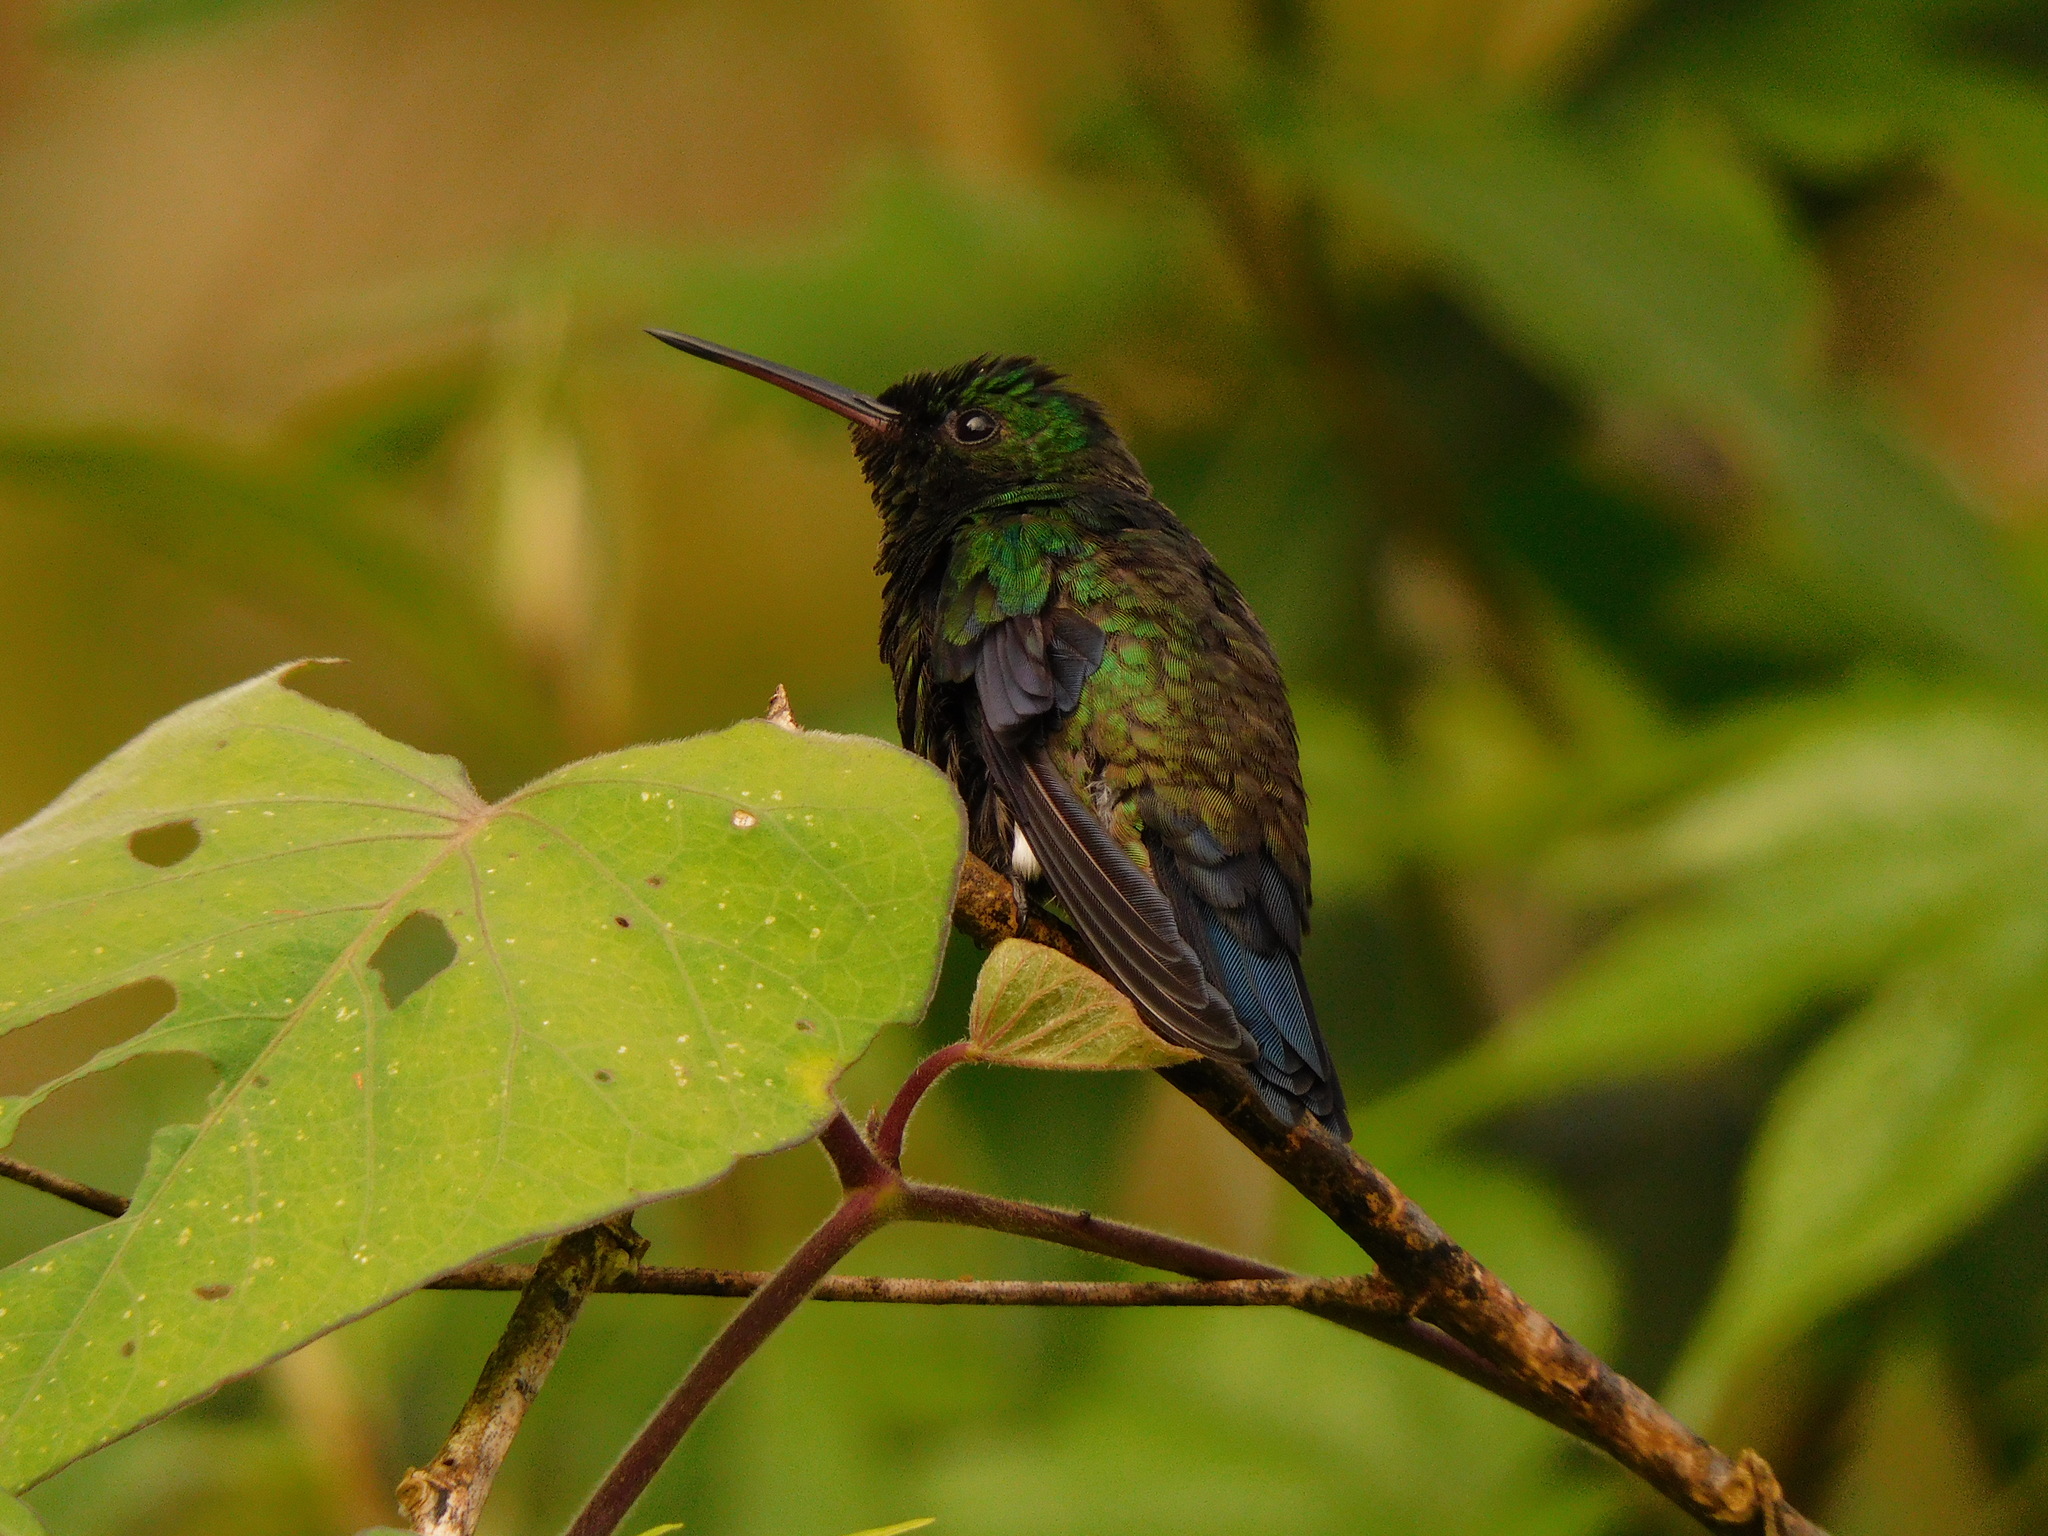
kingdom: Animalia
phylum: Chordata
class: Aves
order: Apodiformes
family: Trochilidae
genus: Saucerottia
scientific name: Saucerottia saucerottei
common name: Steely-vented hummingbird
